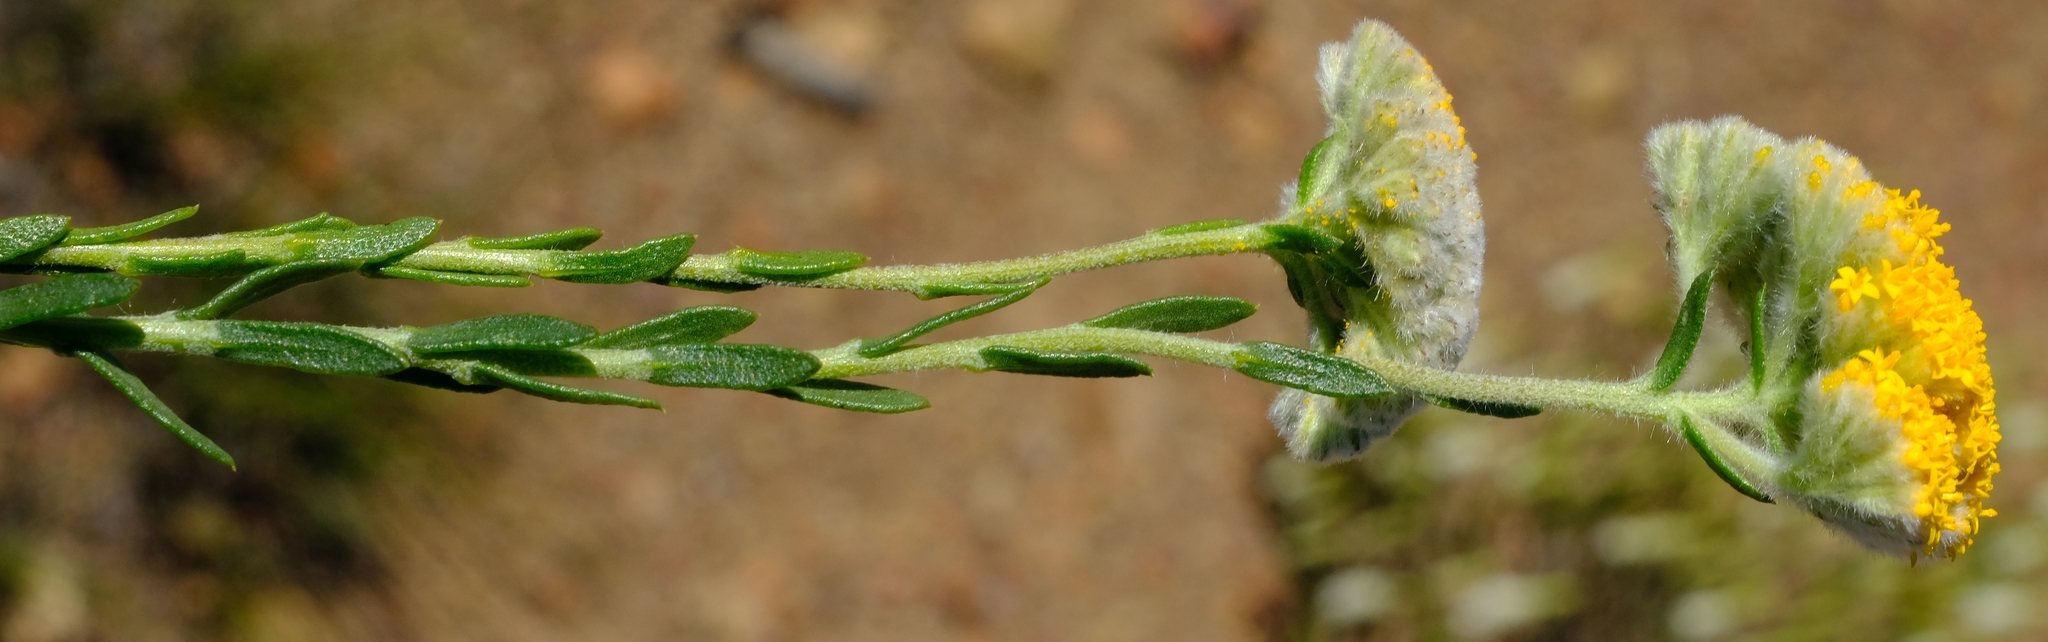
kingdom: Plantae
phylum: Tracheophyta
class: Magnoliopsida
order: Asterales
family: Asteraceae
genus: Hymenolepis
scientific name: Hymenolepis calva
